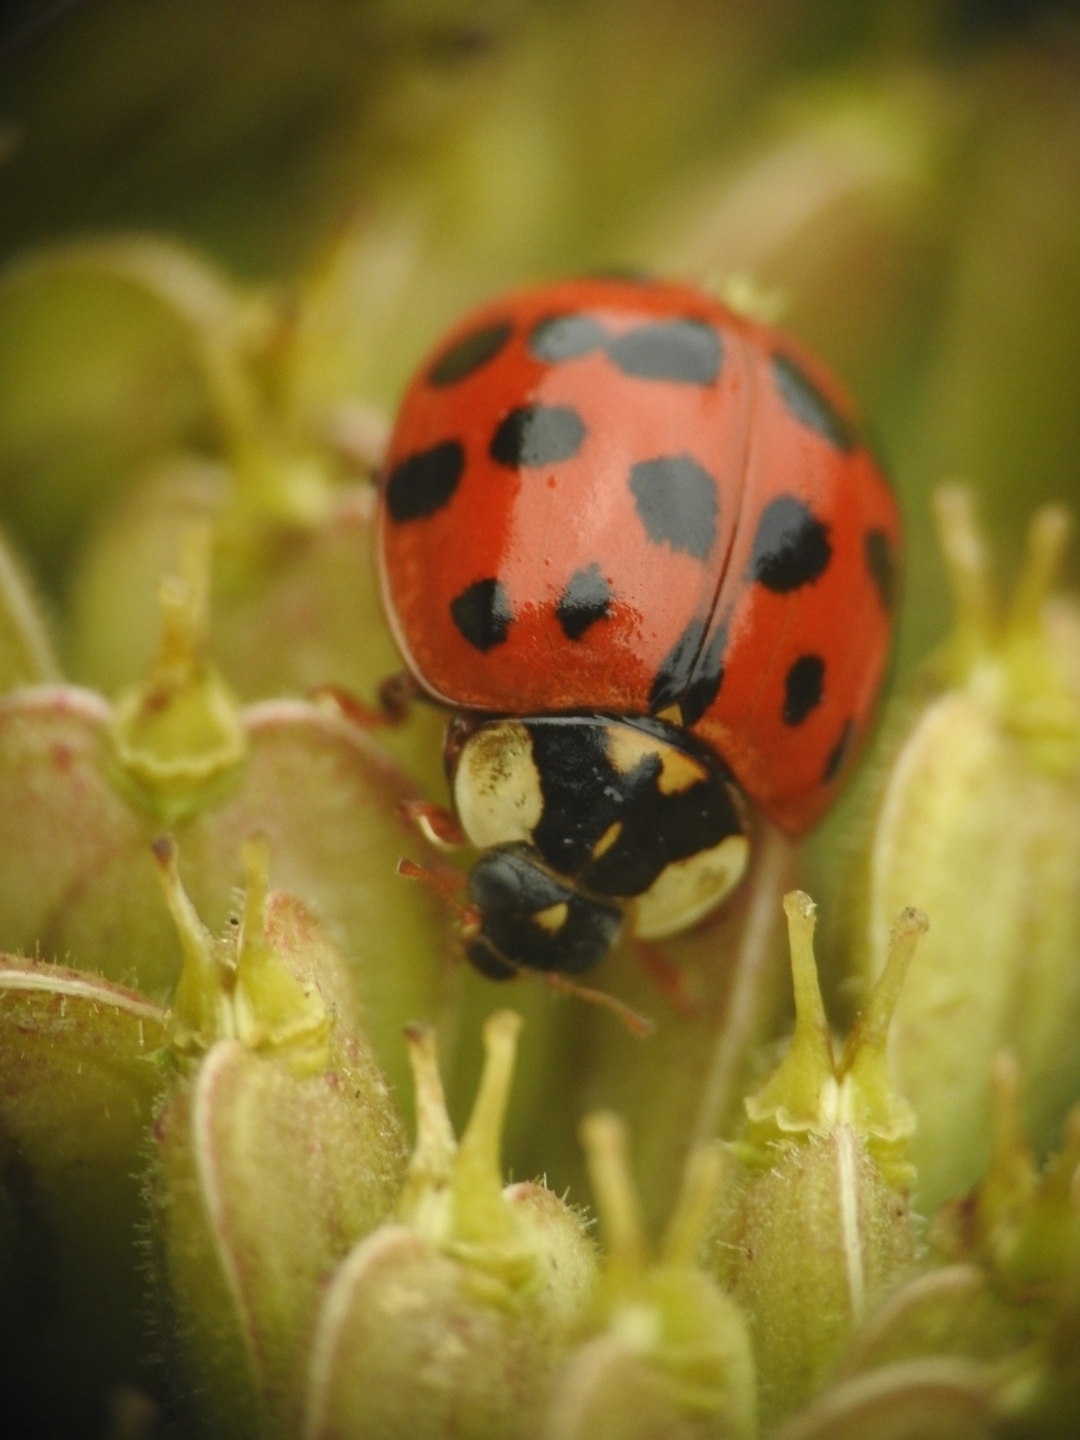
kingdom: Animalia
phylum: Arthropoda
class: Insecta
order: Coleoptera
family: Coccinellidae
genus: Harmonia
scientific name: Harmonia axyridis
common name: Harlequin ladybird
